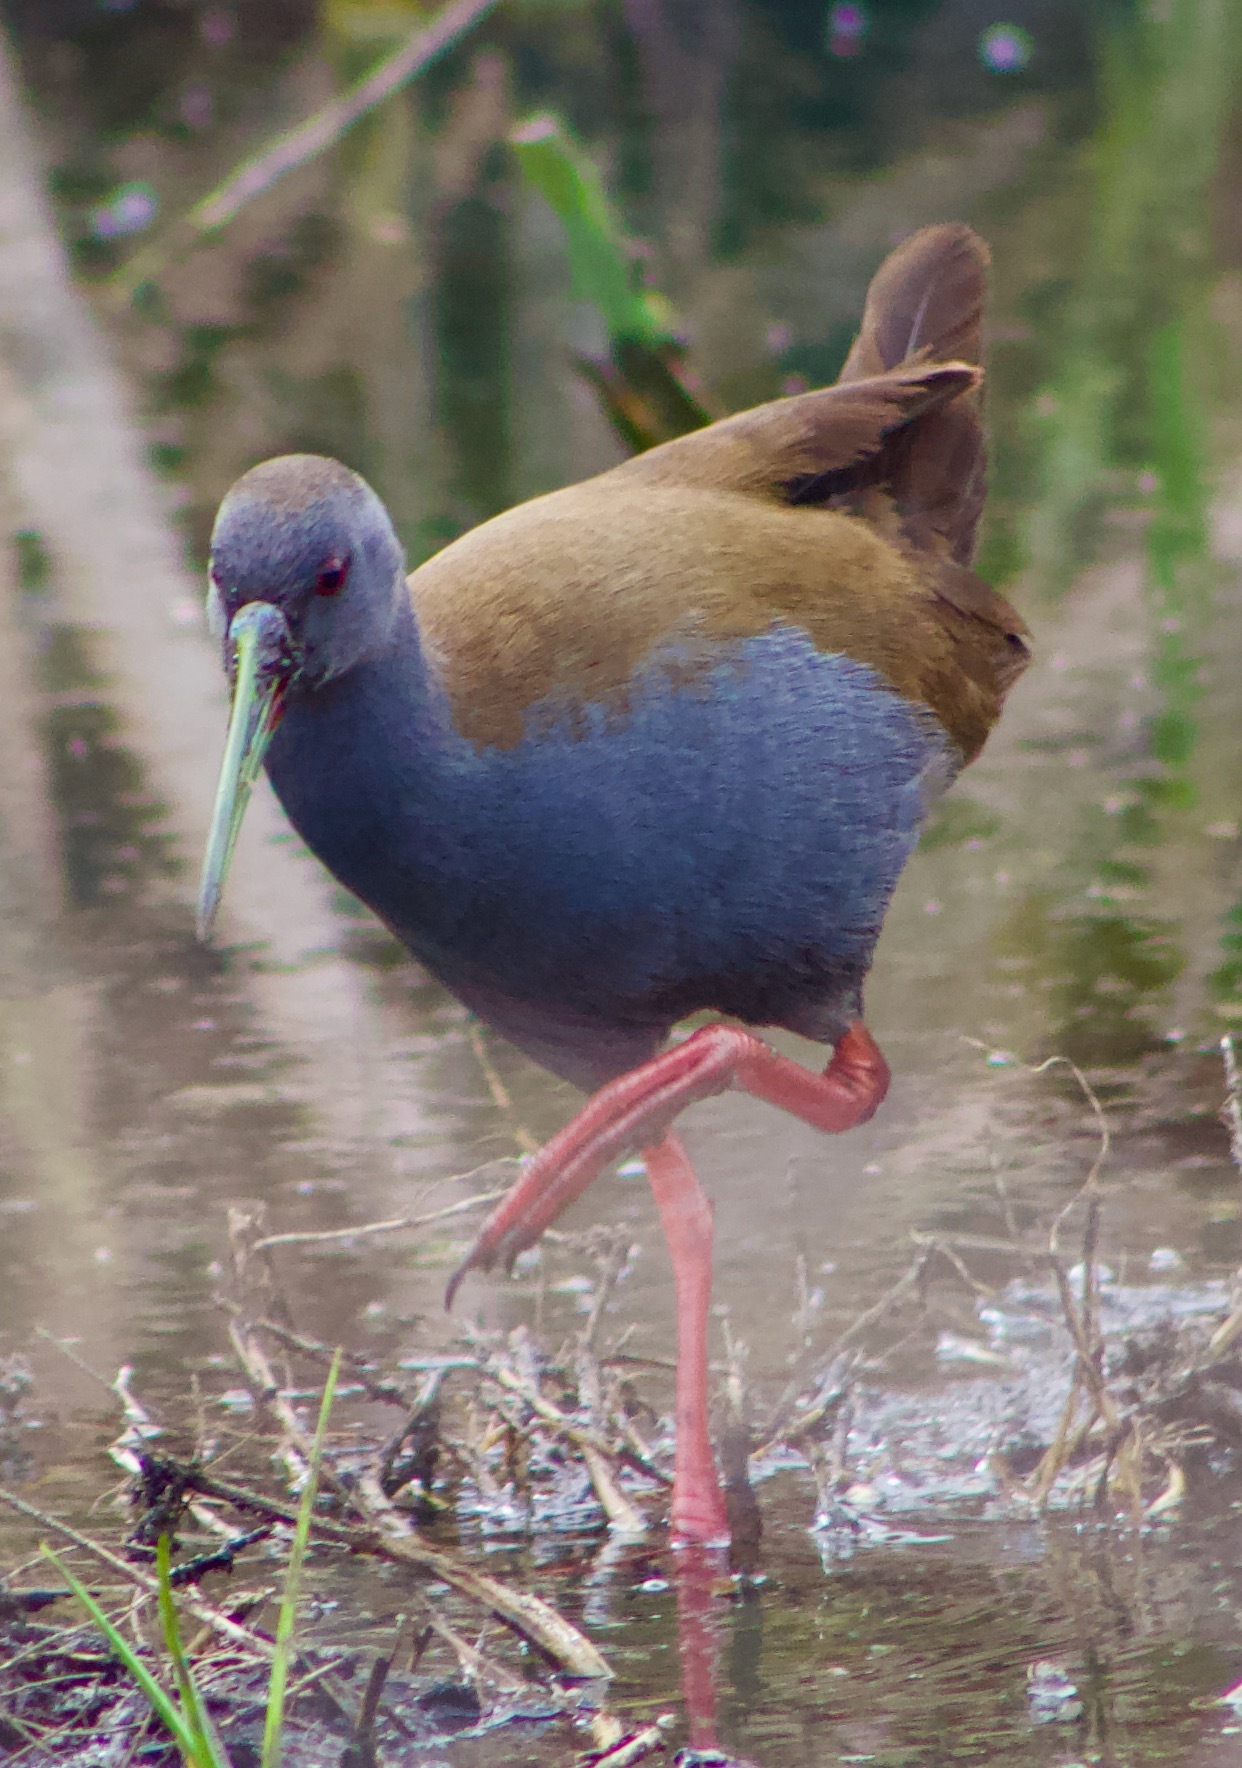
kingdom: Animalia
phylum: Chordata
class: Aves
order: Gruiformes
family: Rallidae
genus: Pardirallus
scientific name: Pardirallus sanguinolentus
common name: Plumbeous rail
